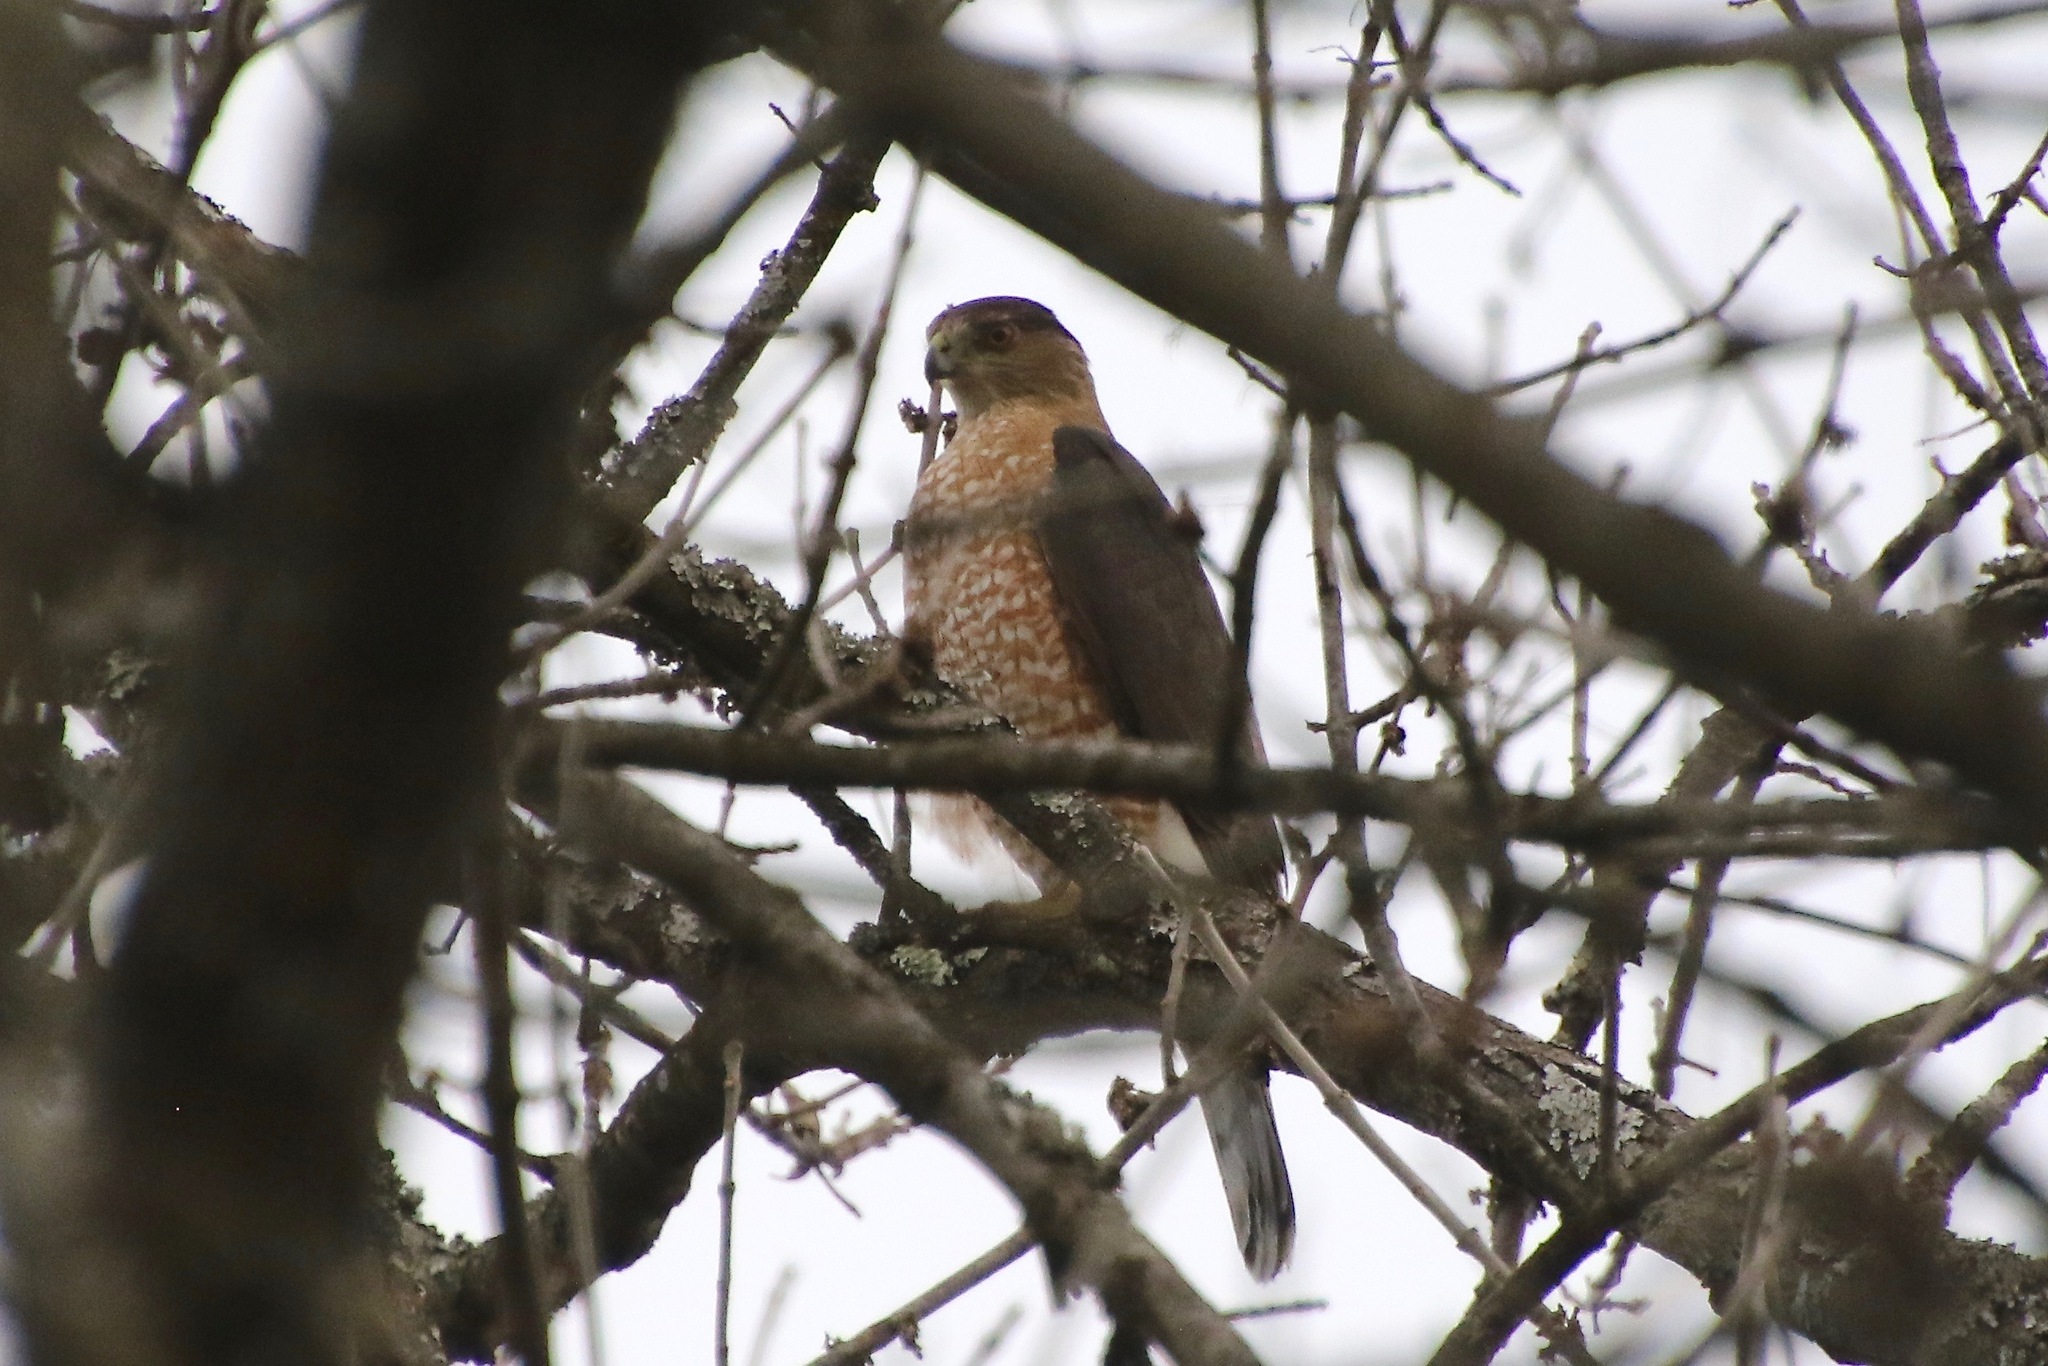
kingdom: Animalia
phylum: Chordata
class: Aves
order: Accipitriformes
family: Accipitridae
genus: Accipiter
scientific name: Accipiter cooperii
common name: Cooper's hawk
